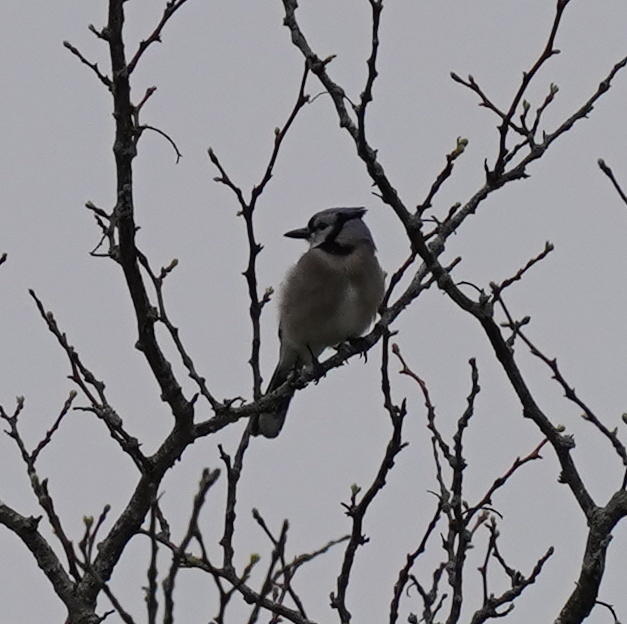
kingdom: Animalia
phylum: Chordata
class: Aves
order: Passeriformes
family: Corvidae
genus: Cyanocitta
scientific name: Cyanocitta cristata
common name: Blue jay
